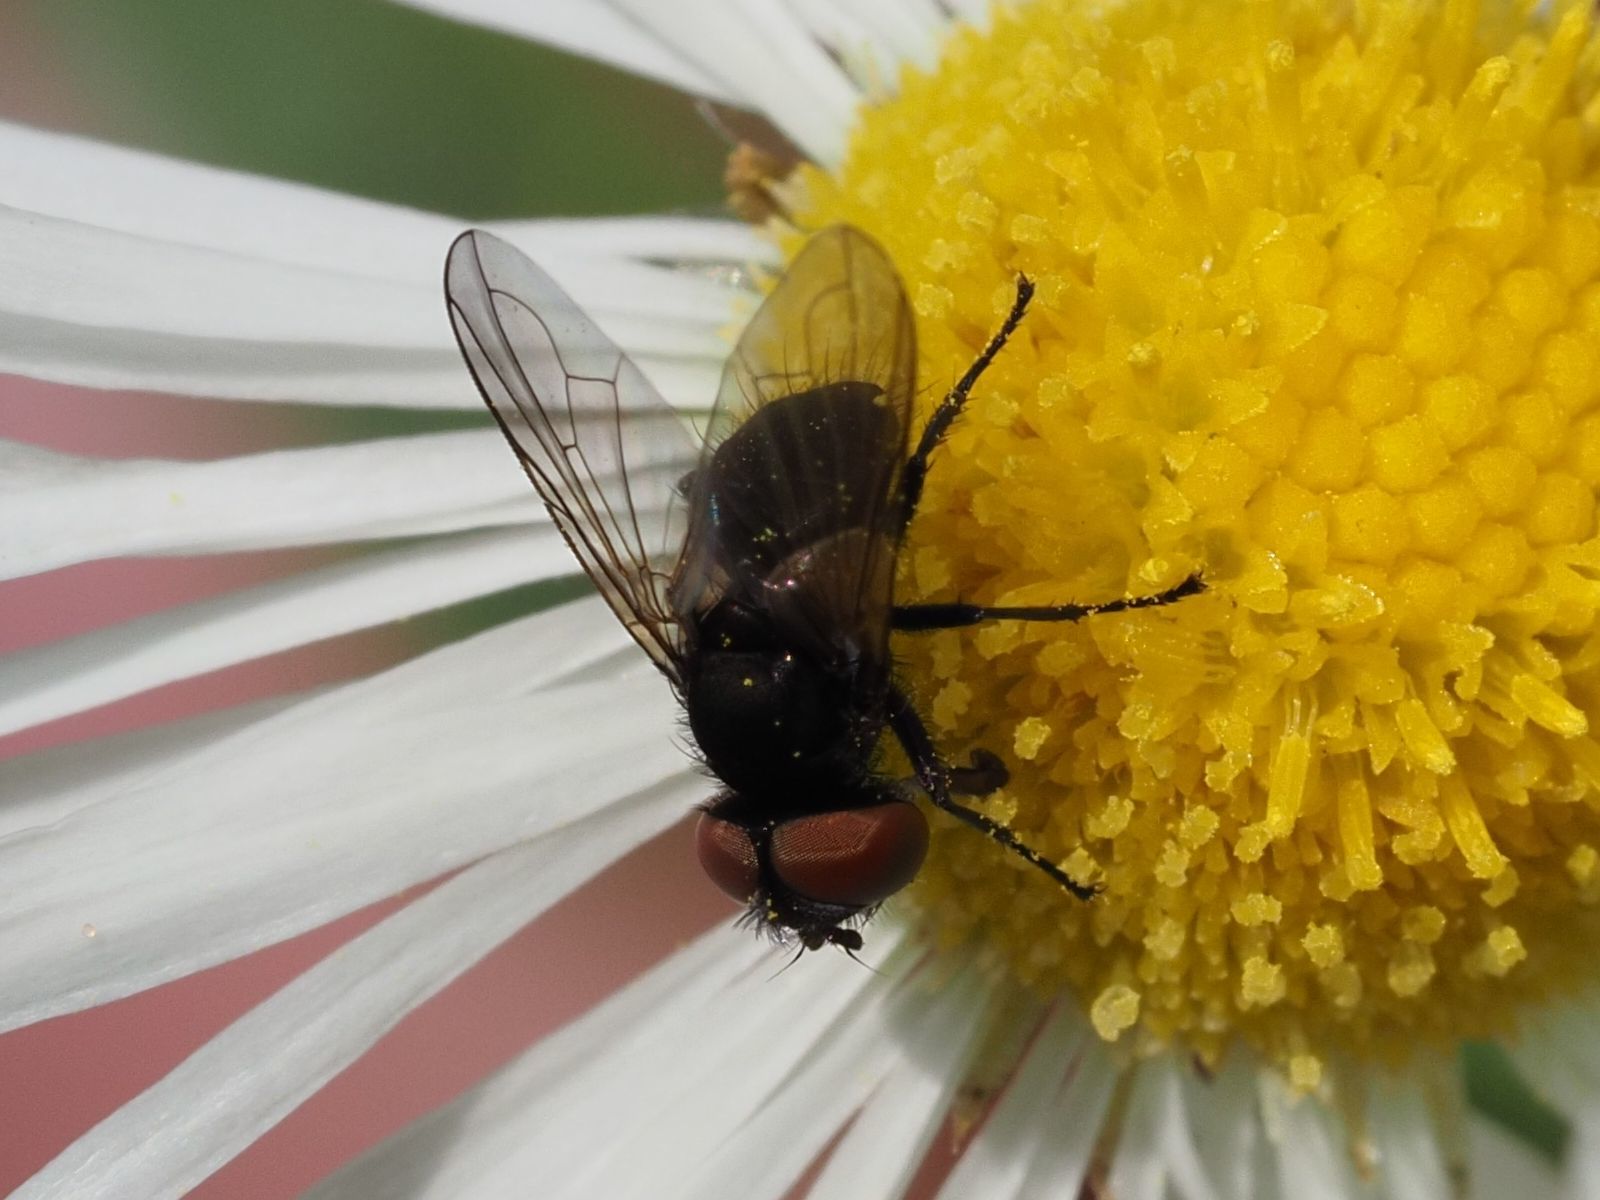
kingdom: Animalia
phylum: Arthropoda
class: Insecta
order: Diptera
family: Tachinidae
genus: Phasia
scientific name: Phasia barbifrons
